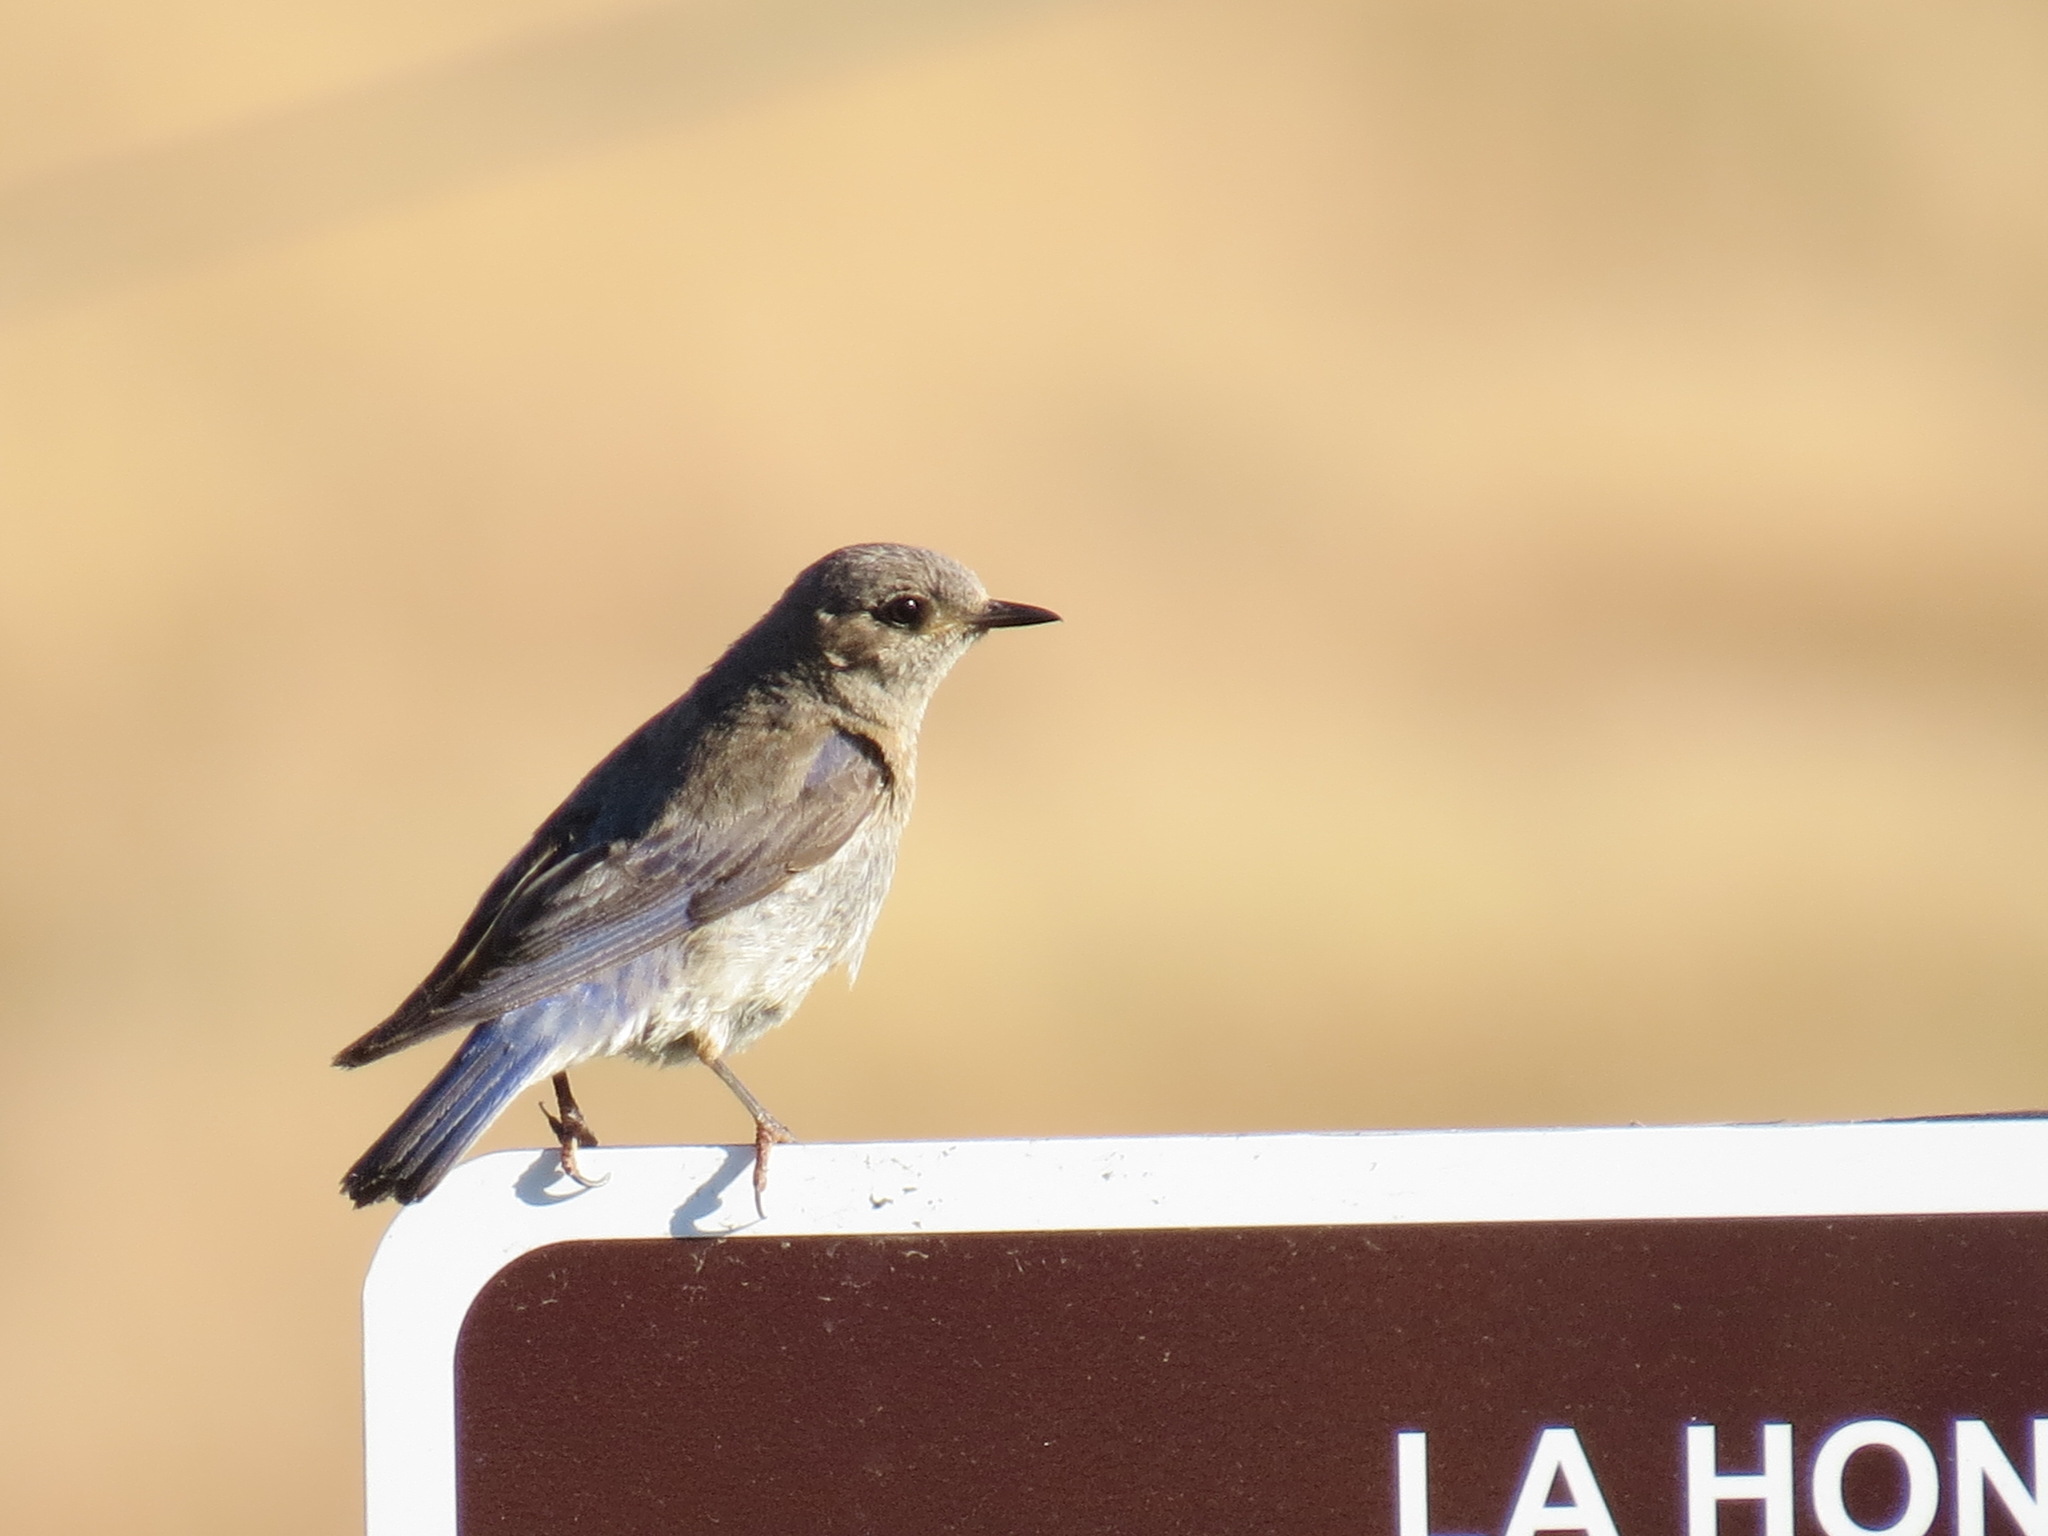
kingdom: Animalia
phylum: Chordata
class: Aves
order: Passeriformes
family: Turdidae
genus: Sialia
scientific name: Sialia mexicana
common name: Western bluebird
